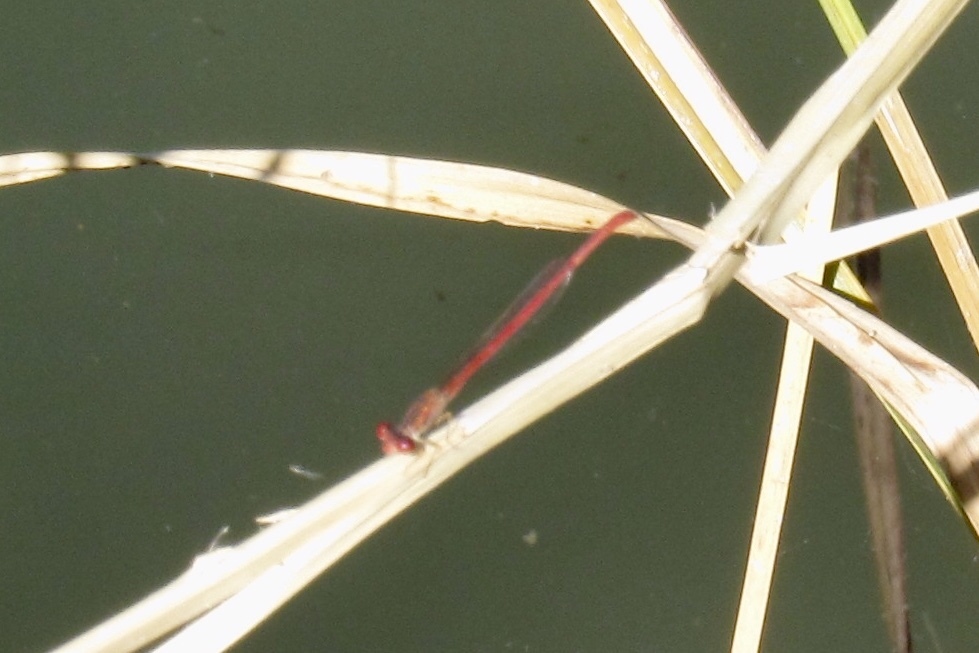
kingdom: Animalia
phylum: Arthropoda
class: Insecta
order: Odonata
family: Coenagrionidae
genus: Telebasis
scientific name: Telebasis salva
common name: Desert firetail
